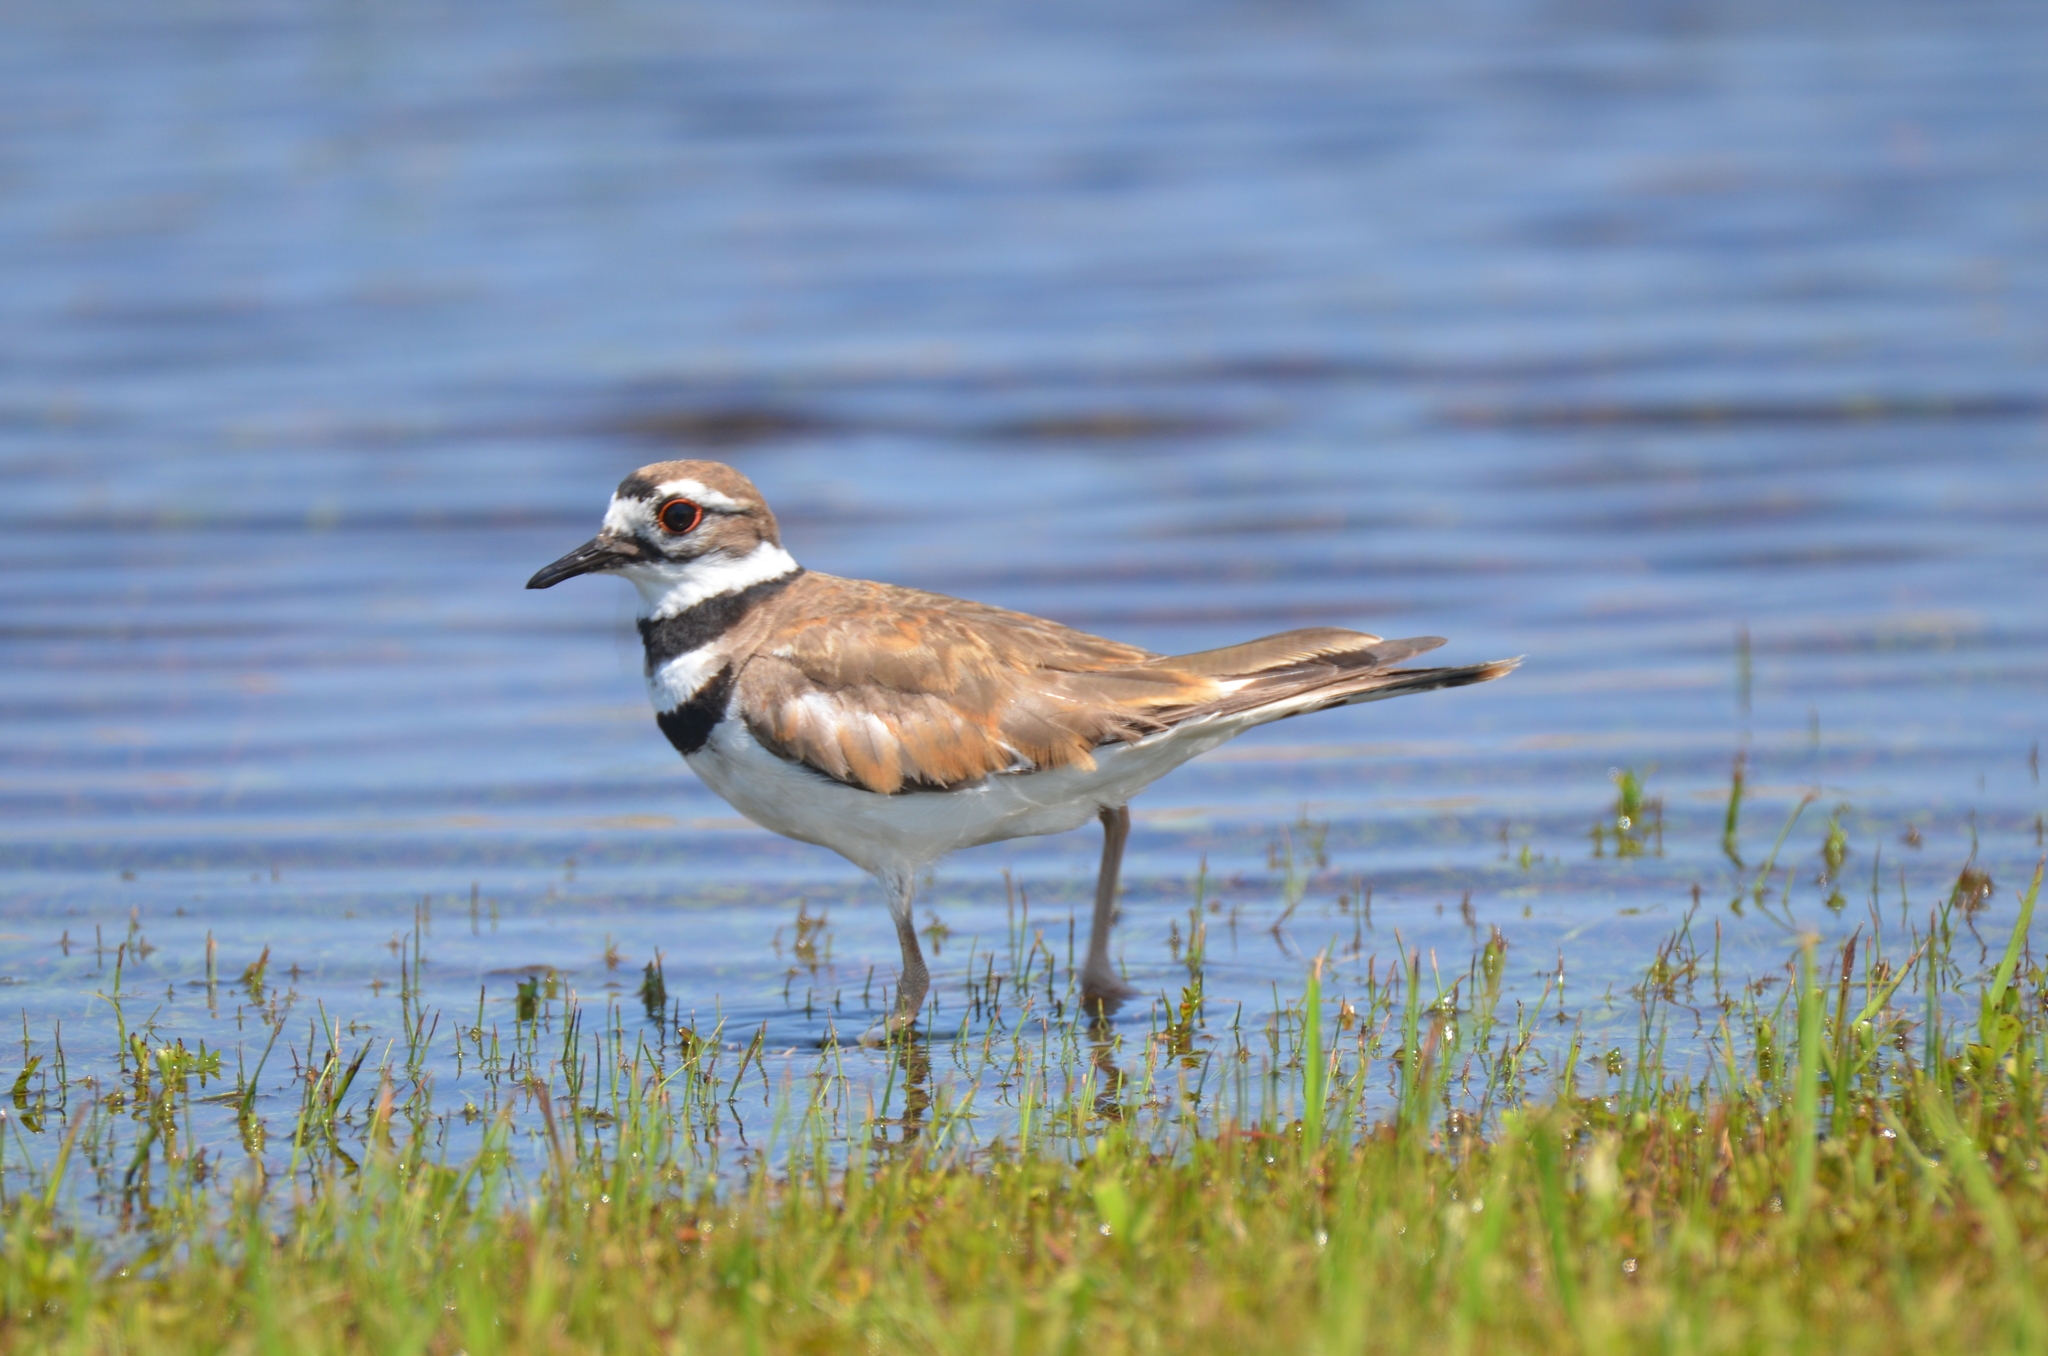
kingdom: Animalia
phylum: Chordata
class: Aves
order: Charadriiformes
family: Charadriidae
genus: Charadrius
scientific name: Charadrius vociferus
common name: Killdeer
